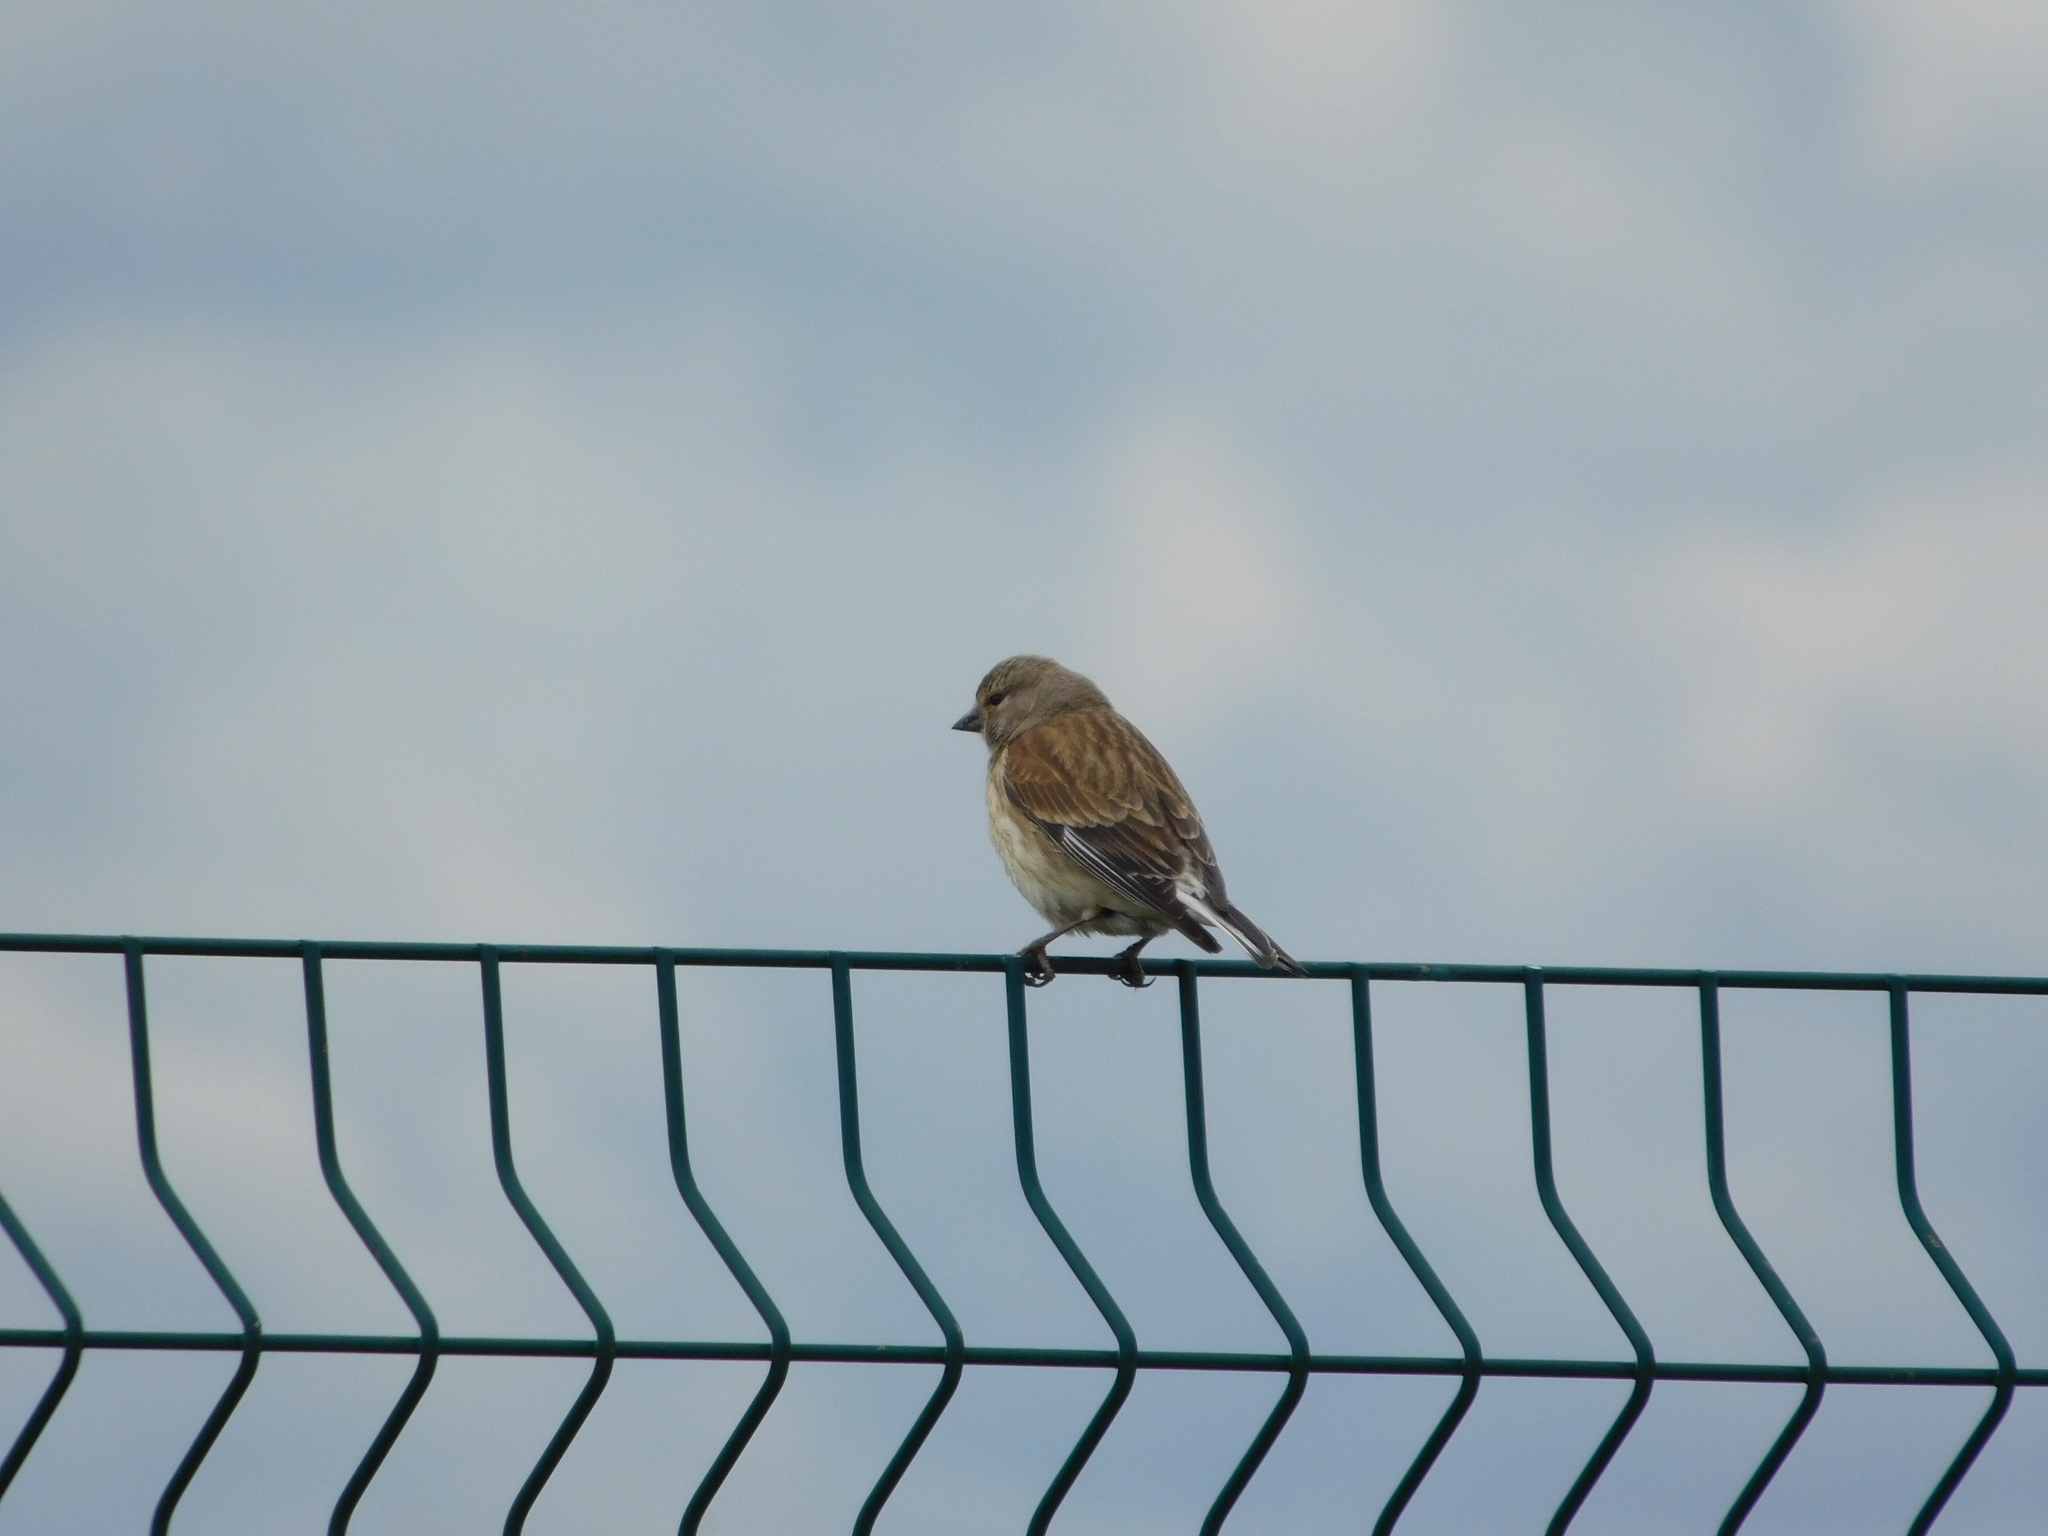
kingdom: Animalia
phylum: Chordata
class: Aves
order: Passeriformes
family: Fringillidae
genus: Linaria
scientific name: Linaria cannabina
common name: Common linnet
